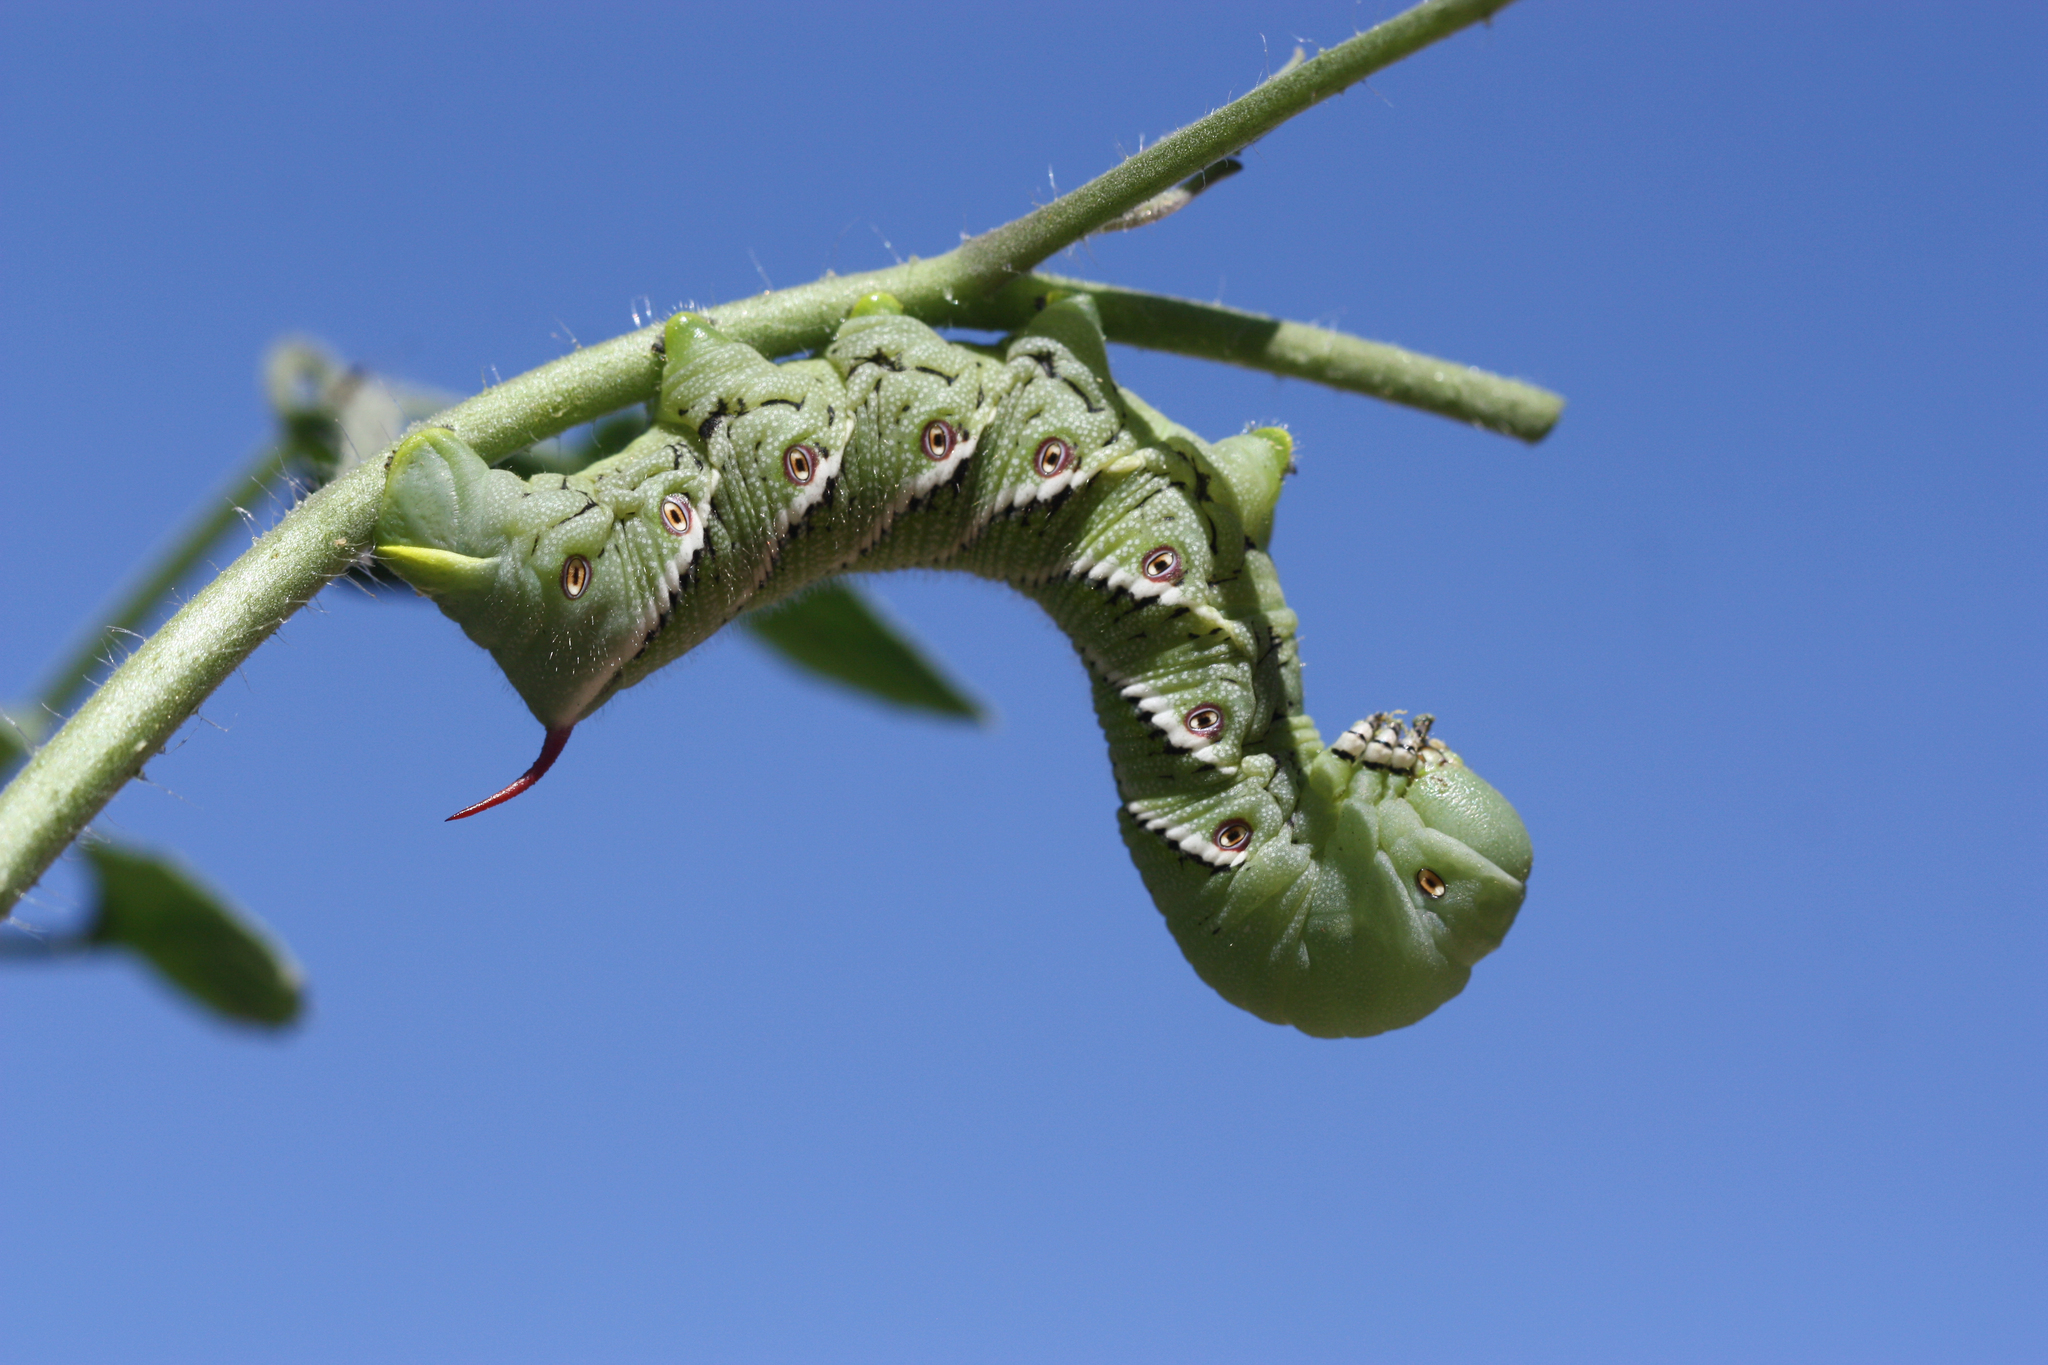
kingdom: Animalia
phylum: Arthropoda
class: Insecta
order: Lepidoptera
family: Sphingidae
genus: Manduca
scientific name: Manduca sexta
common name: Carolina sphinx
